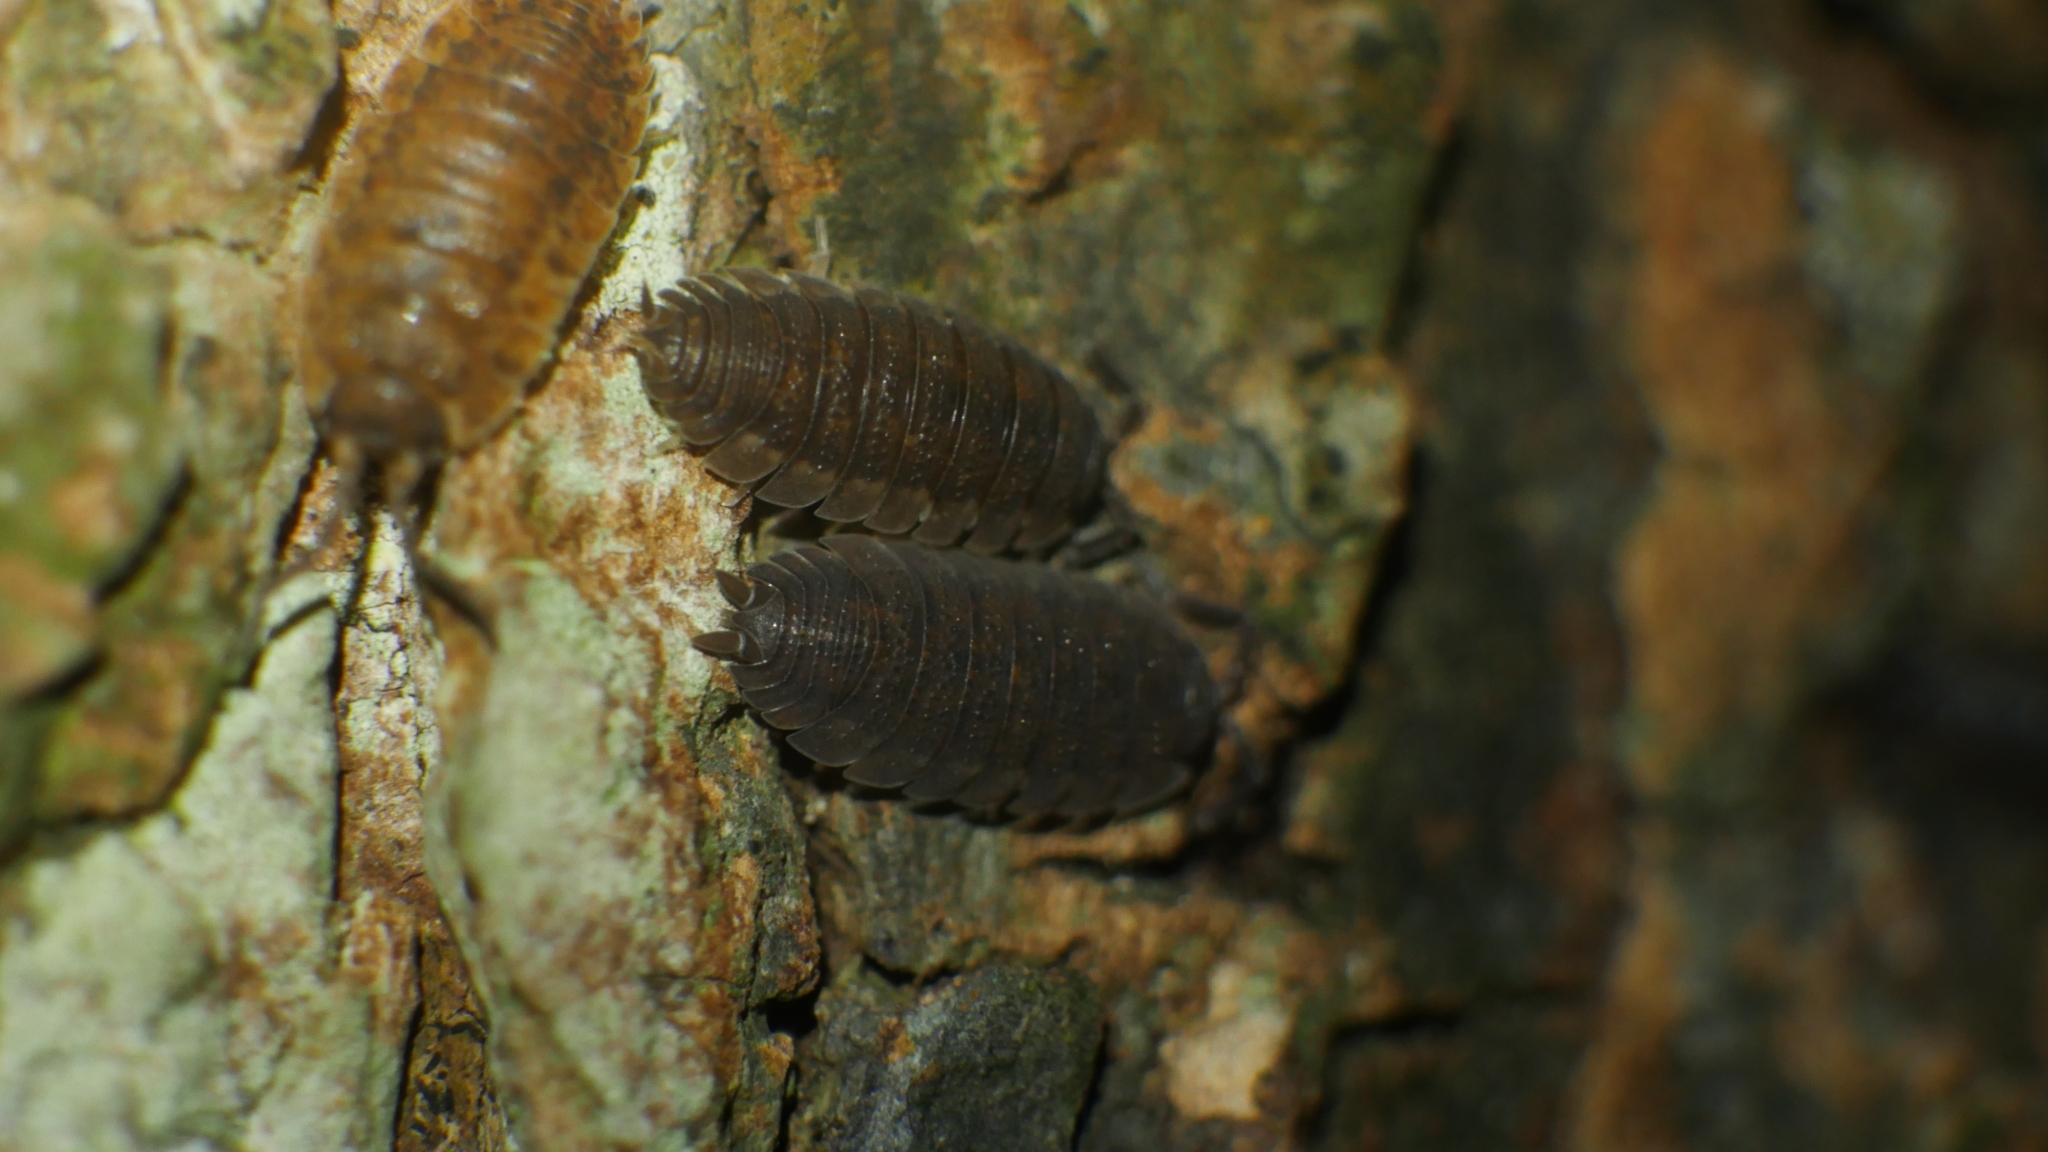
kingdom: Animalia
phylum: Arthropoda
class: Malacostraca
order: Isopoda
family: Porcellionidae
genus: Porcellio
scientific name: Porcellio scaber
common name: Common rough woodlouse
